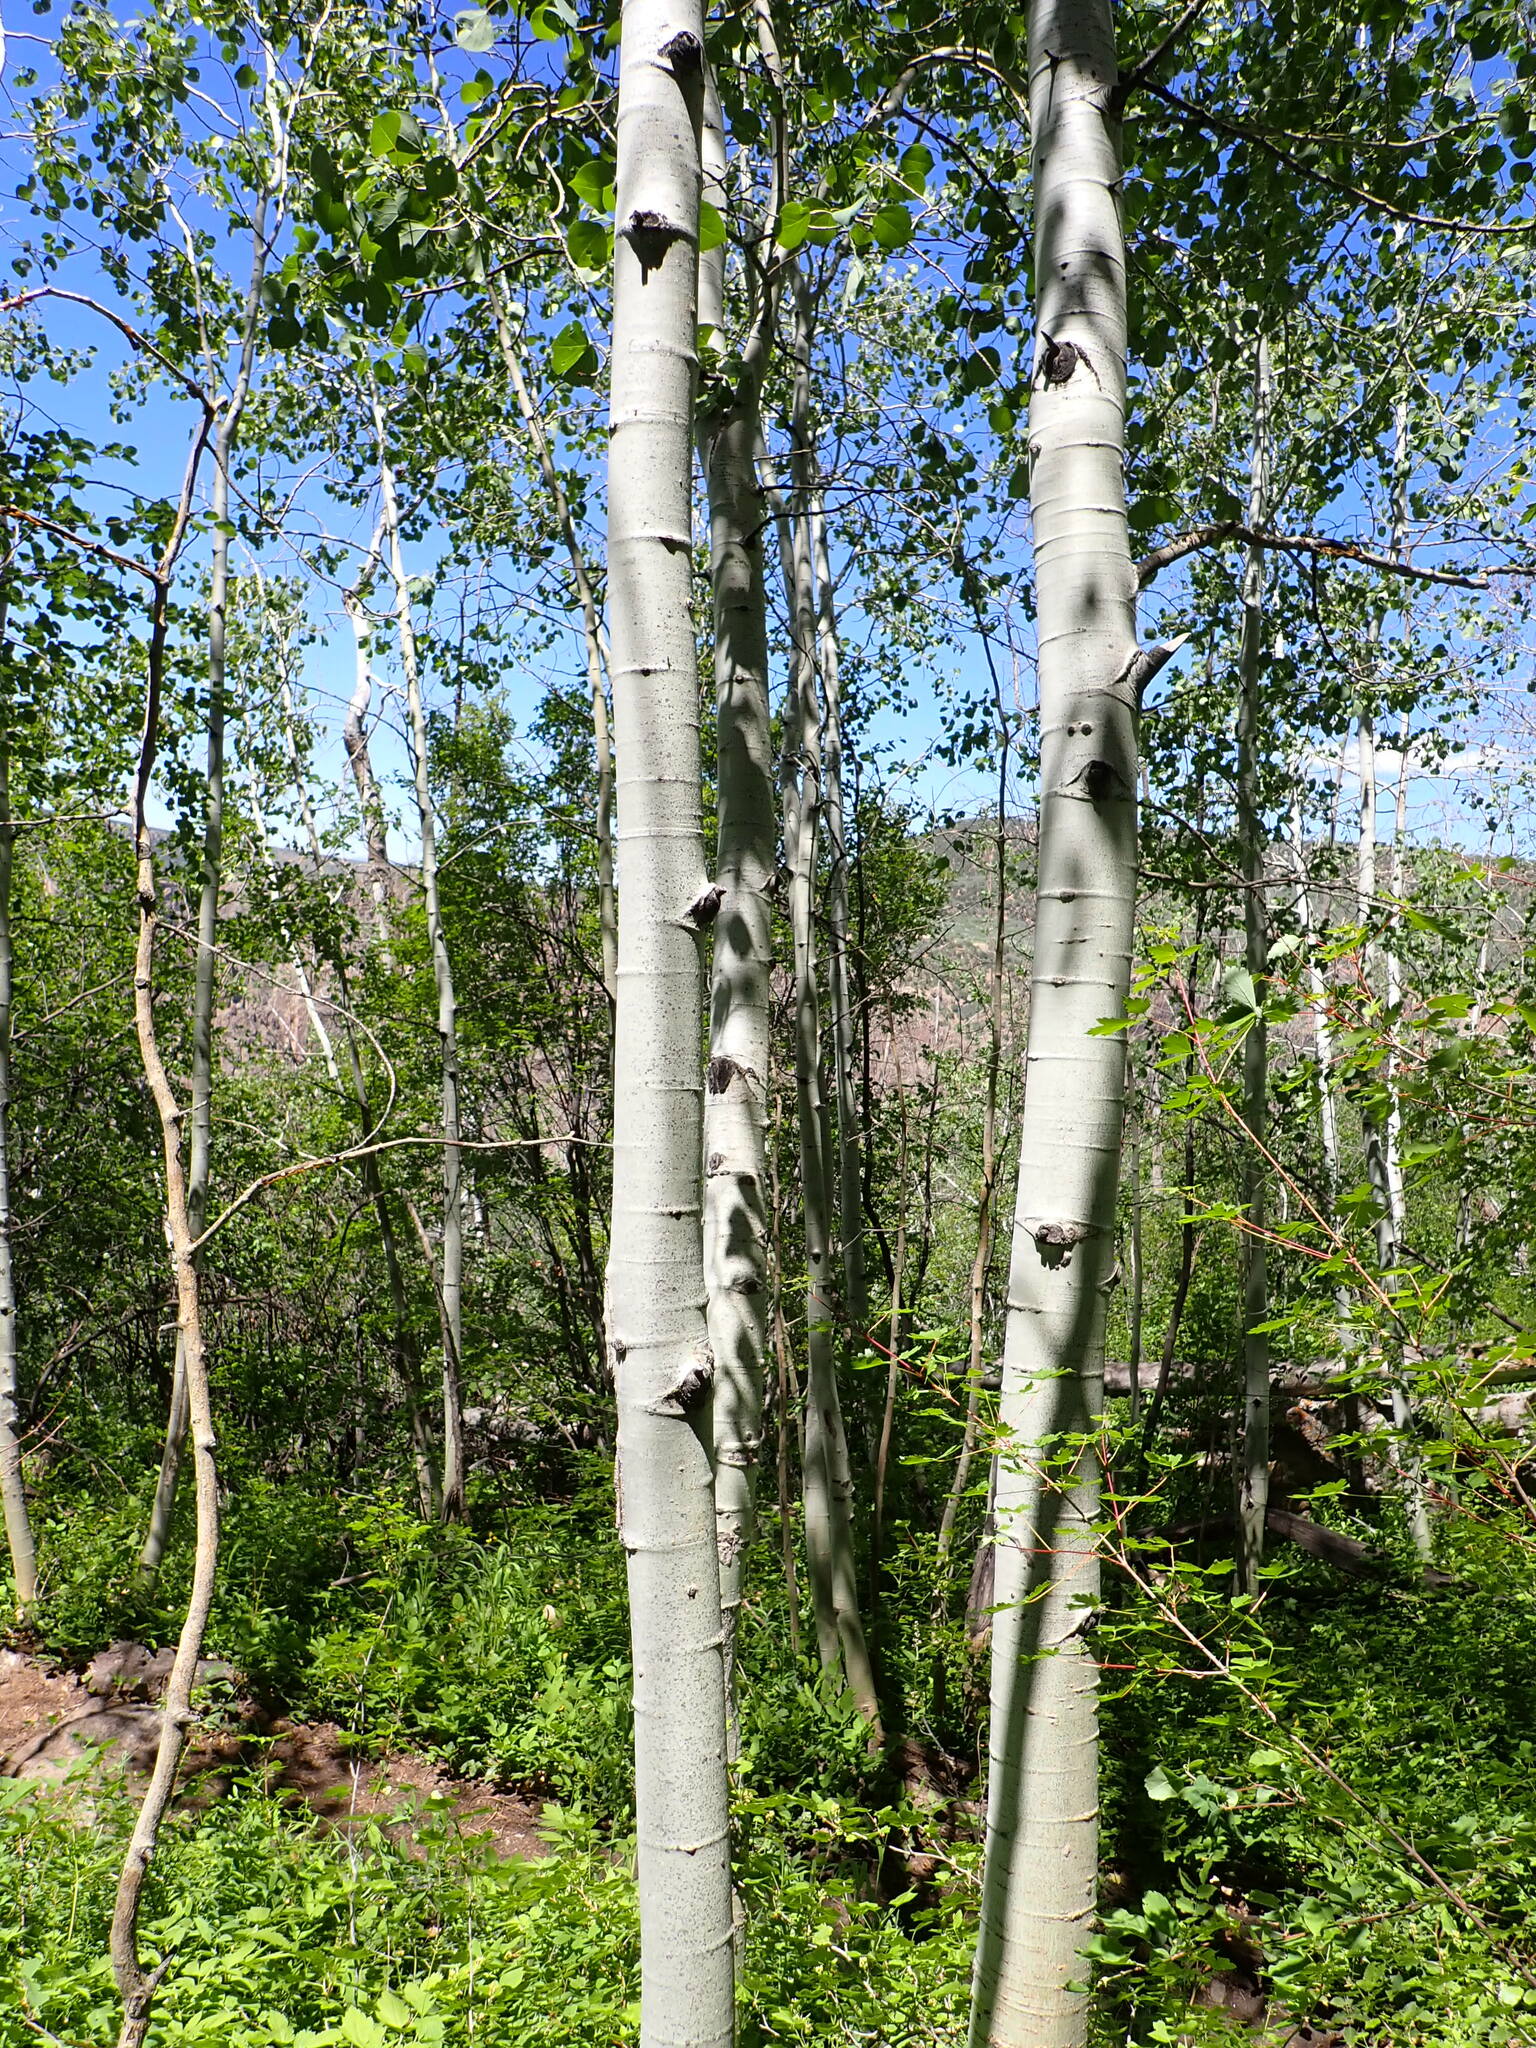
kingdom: Plantae
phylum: Tracheophyta
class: Magnoliopsida
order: Malpighiales
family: Salicaceae
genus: Populus
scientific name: Populus tremuloides
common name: Quaking aspen
